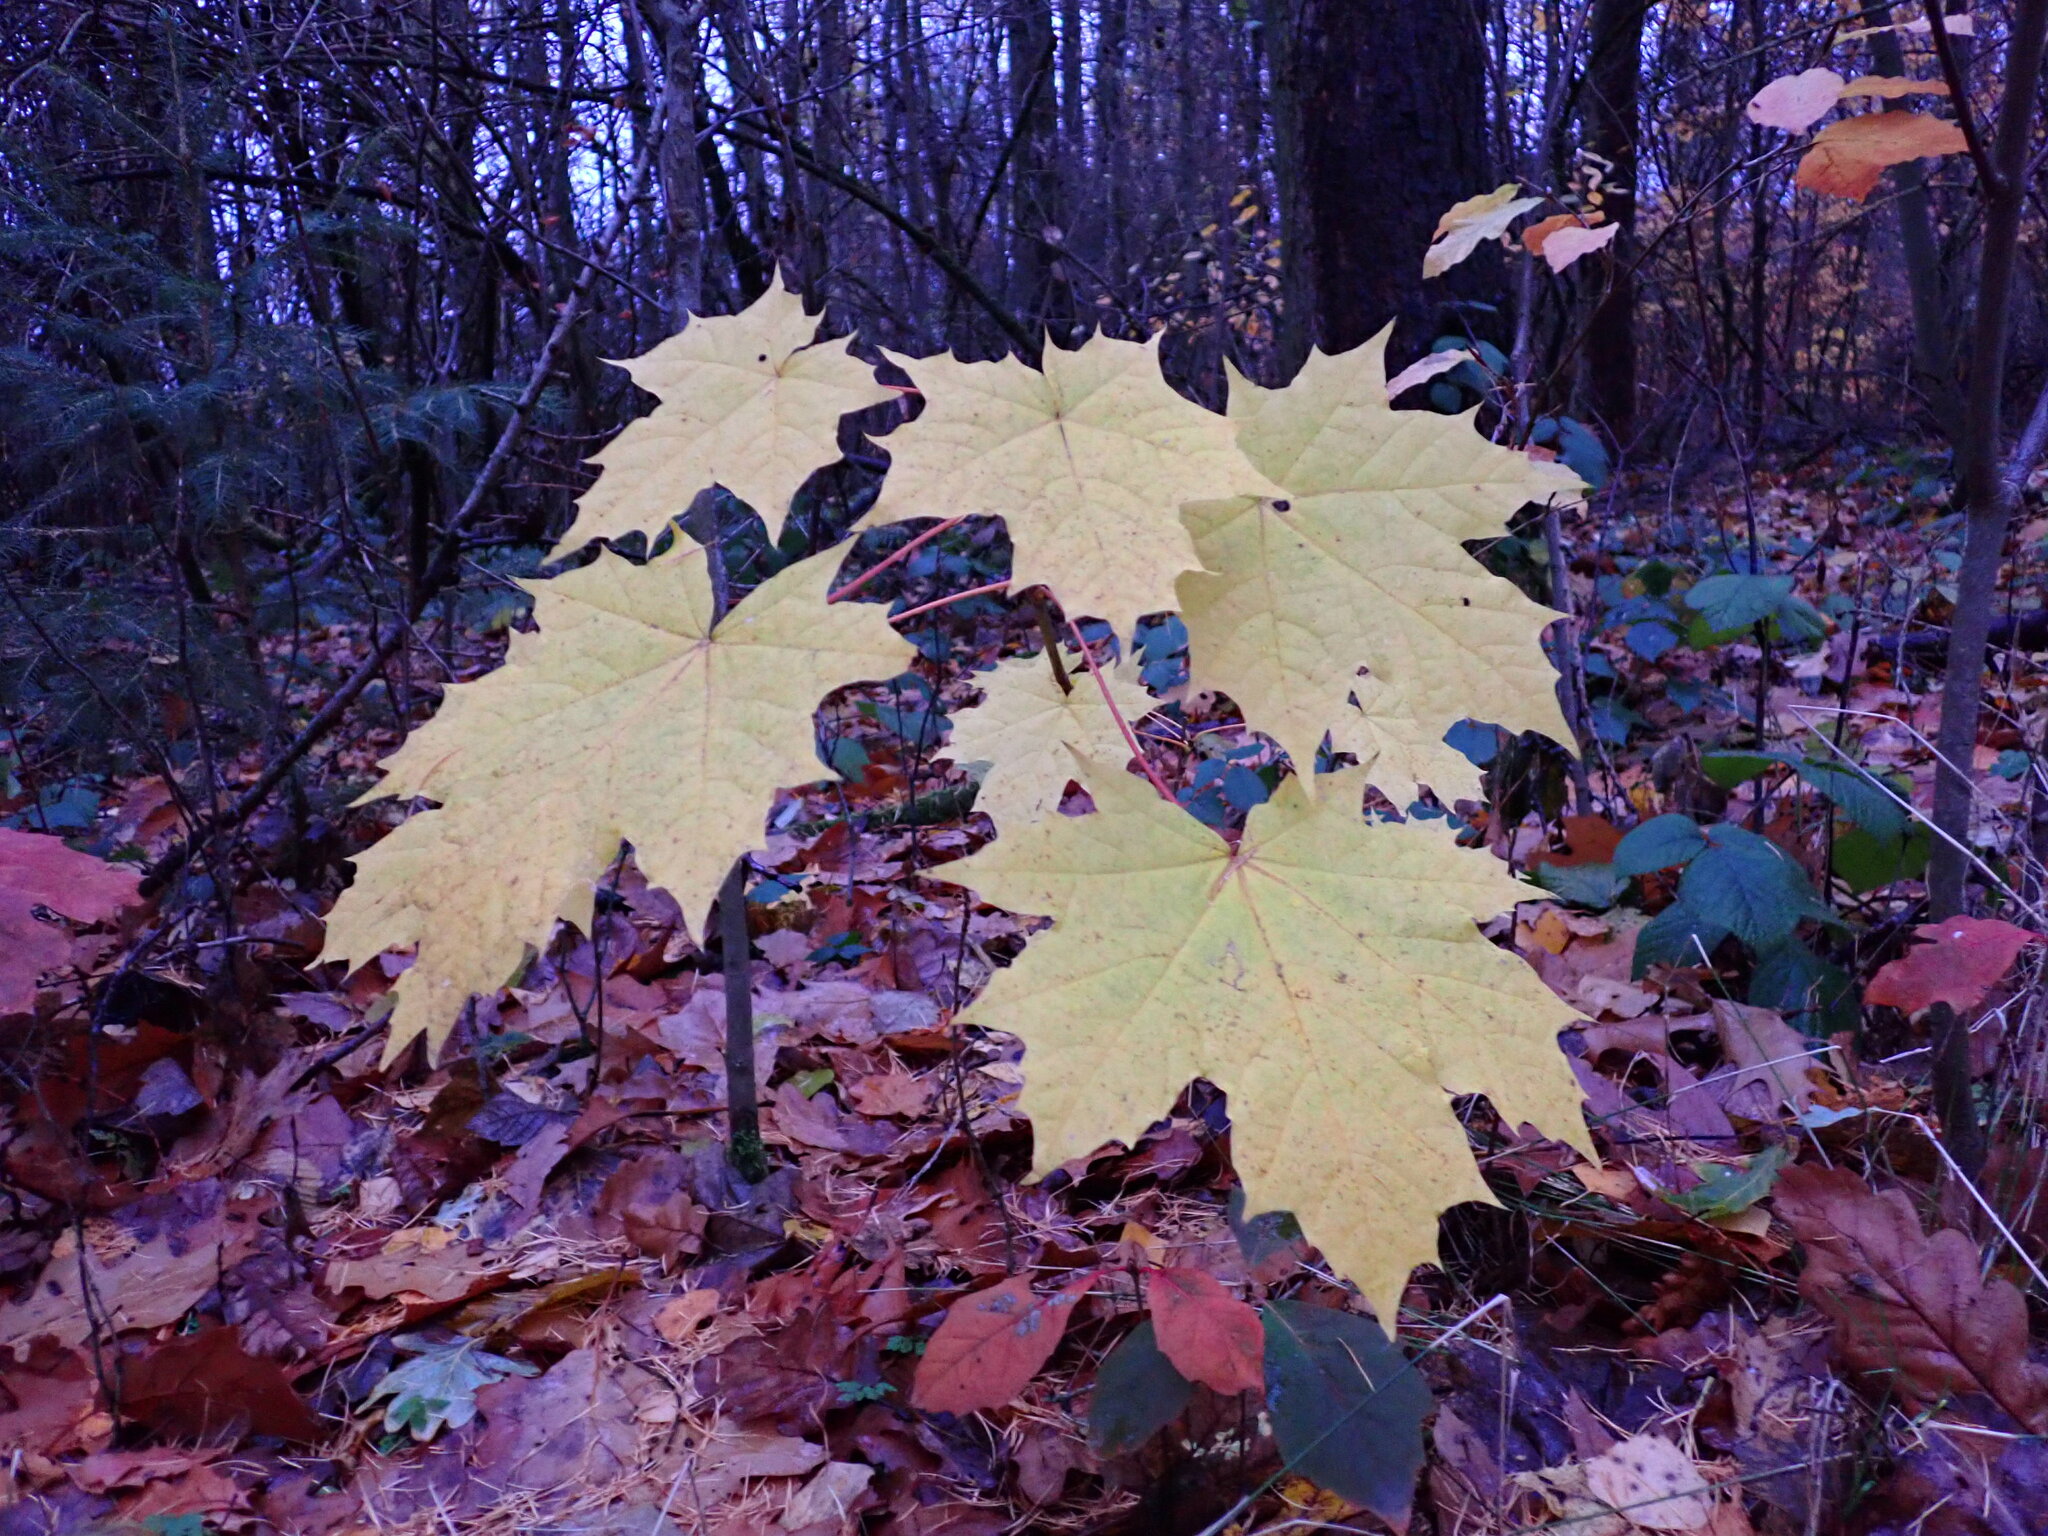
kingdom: Plantae
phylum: Tracheophyta
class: Magnoliopsida
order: Sapindales
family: Sapindaceae
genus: Acer
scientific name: Acer platanoides
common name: Norway maple
